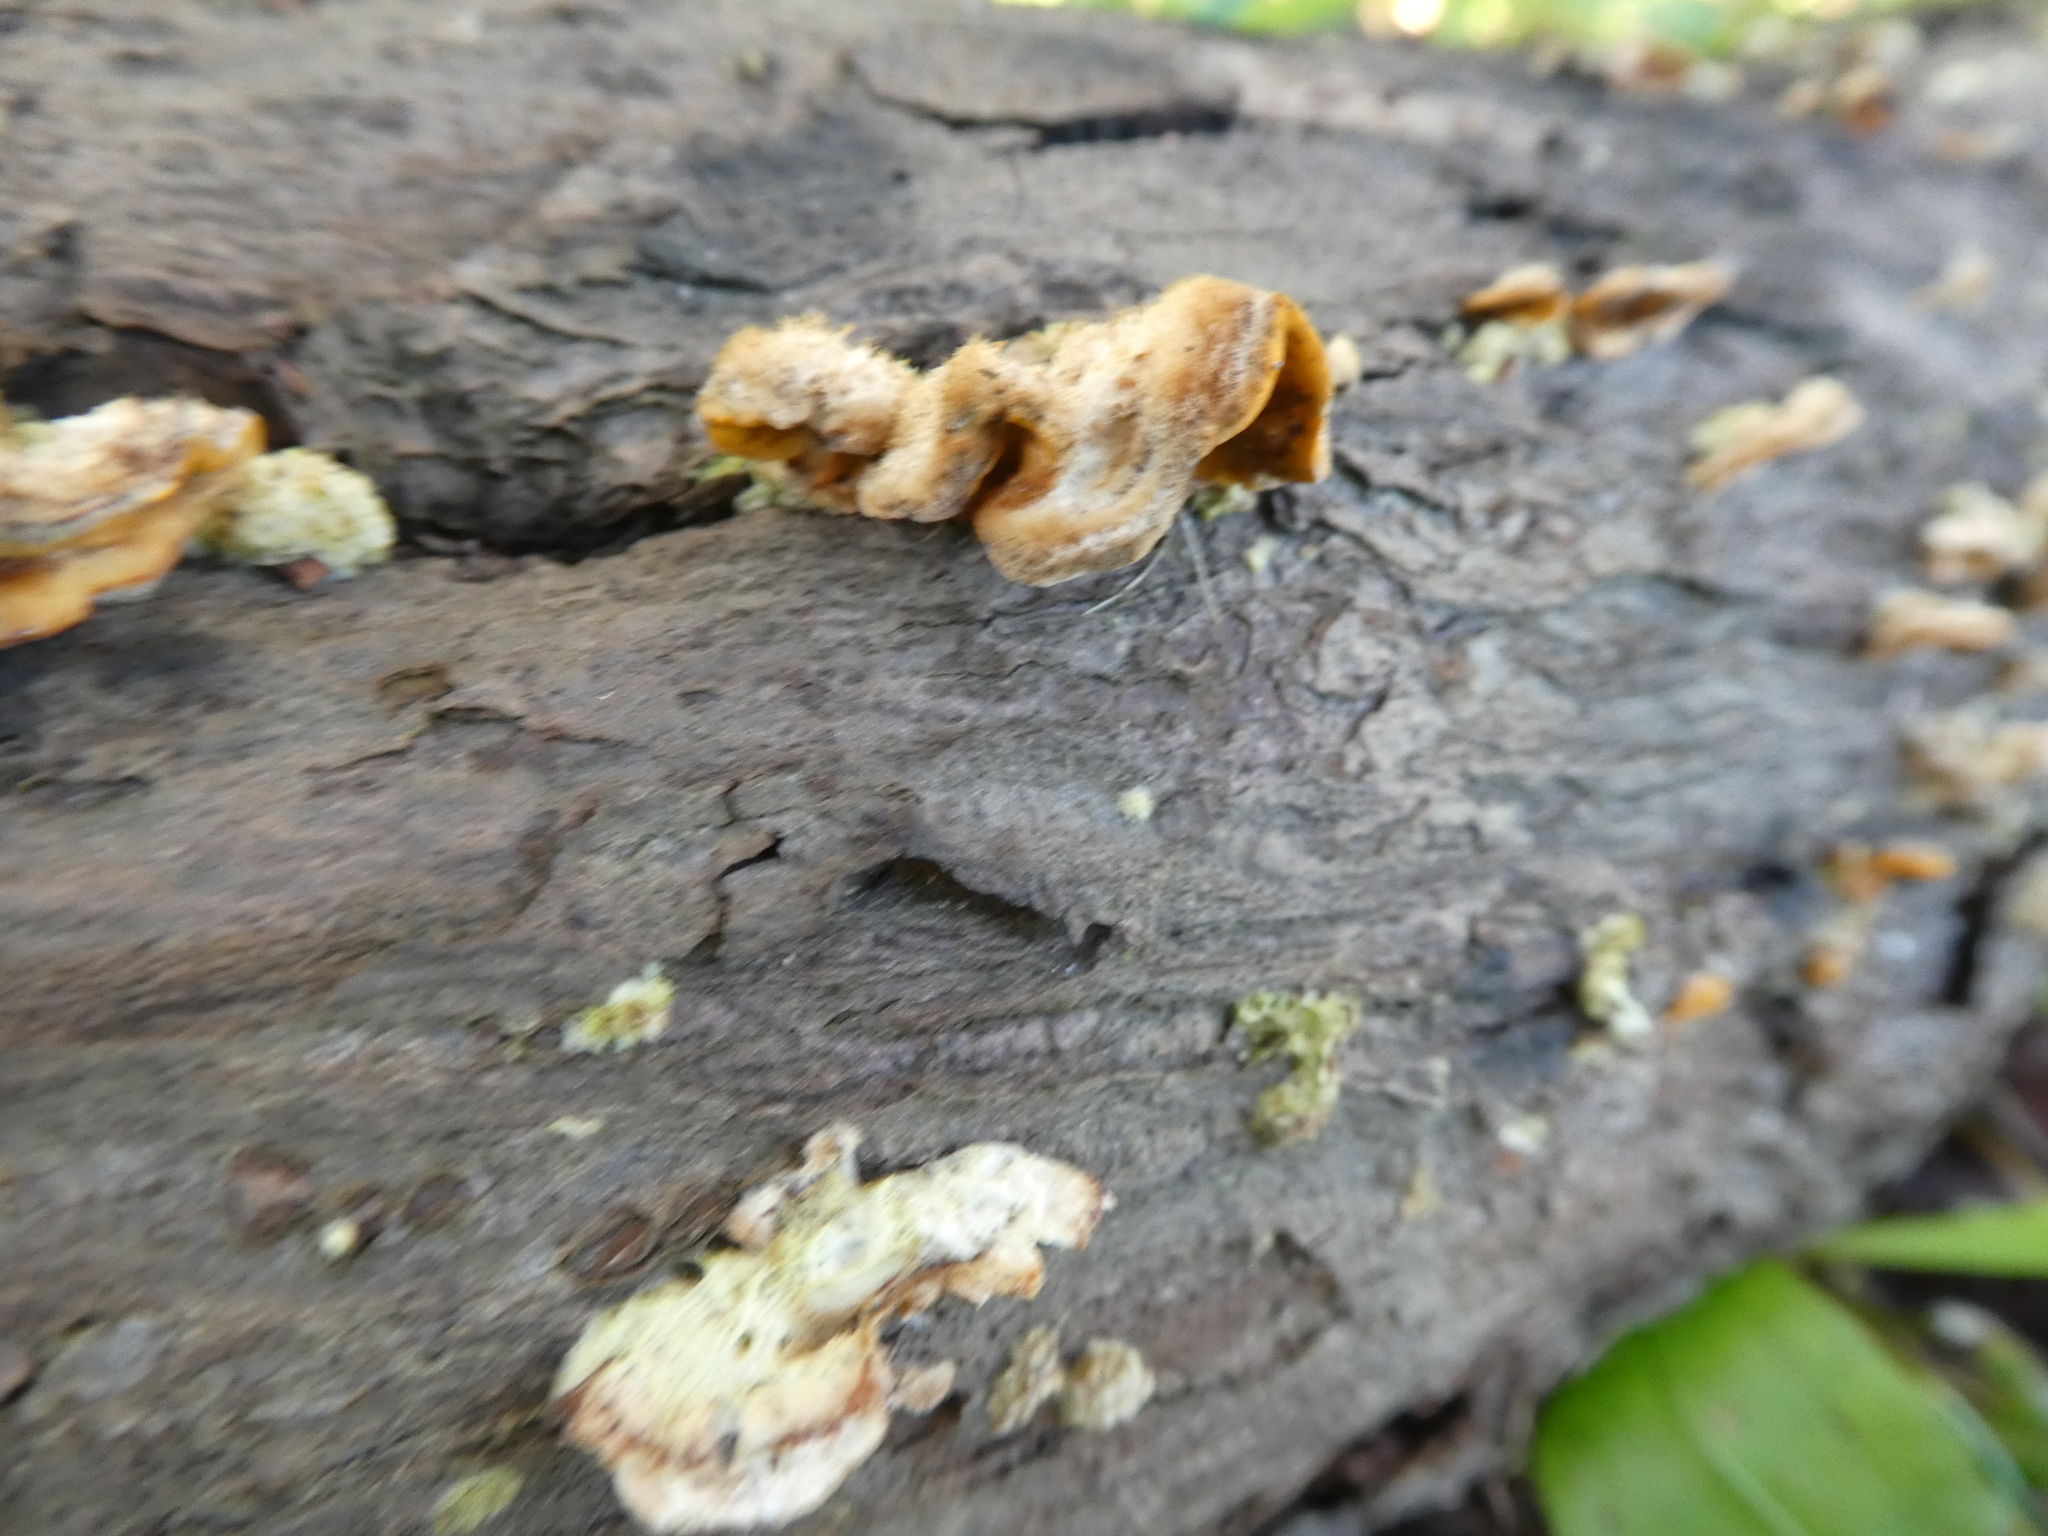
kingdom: Fungi
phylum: Basidiomycota
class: Agaricomycetes
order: Russulales
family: Stereaceae
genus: Stereum
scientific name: Stereum hirsutum
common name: Hairy curtain crust
